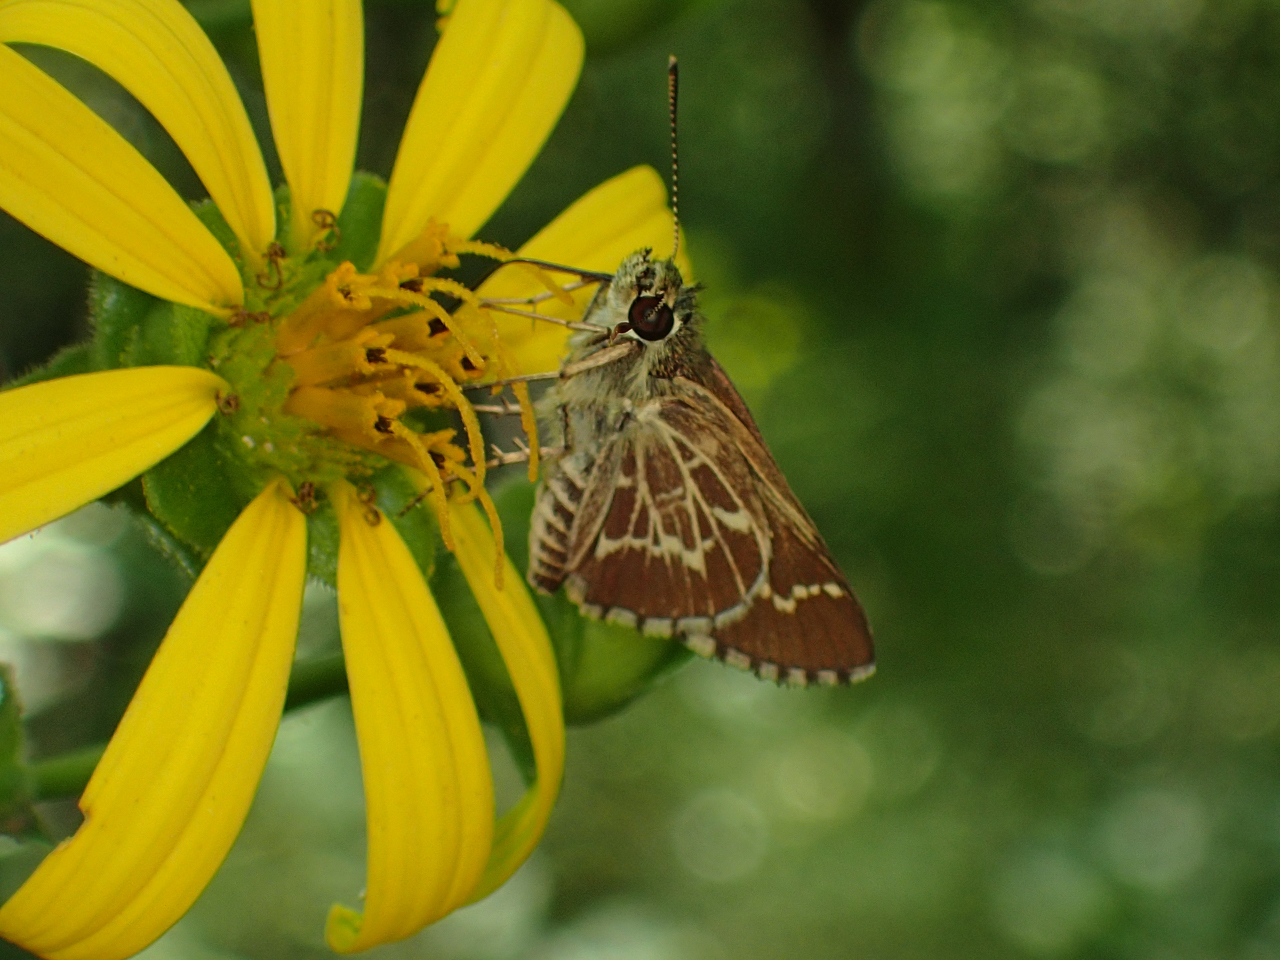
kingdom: Animalia
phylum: Arthropoda
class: Insecta
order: Lepidoptera
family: Hesperiidae
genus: Mastor
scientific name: Mastor aesculapius
